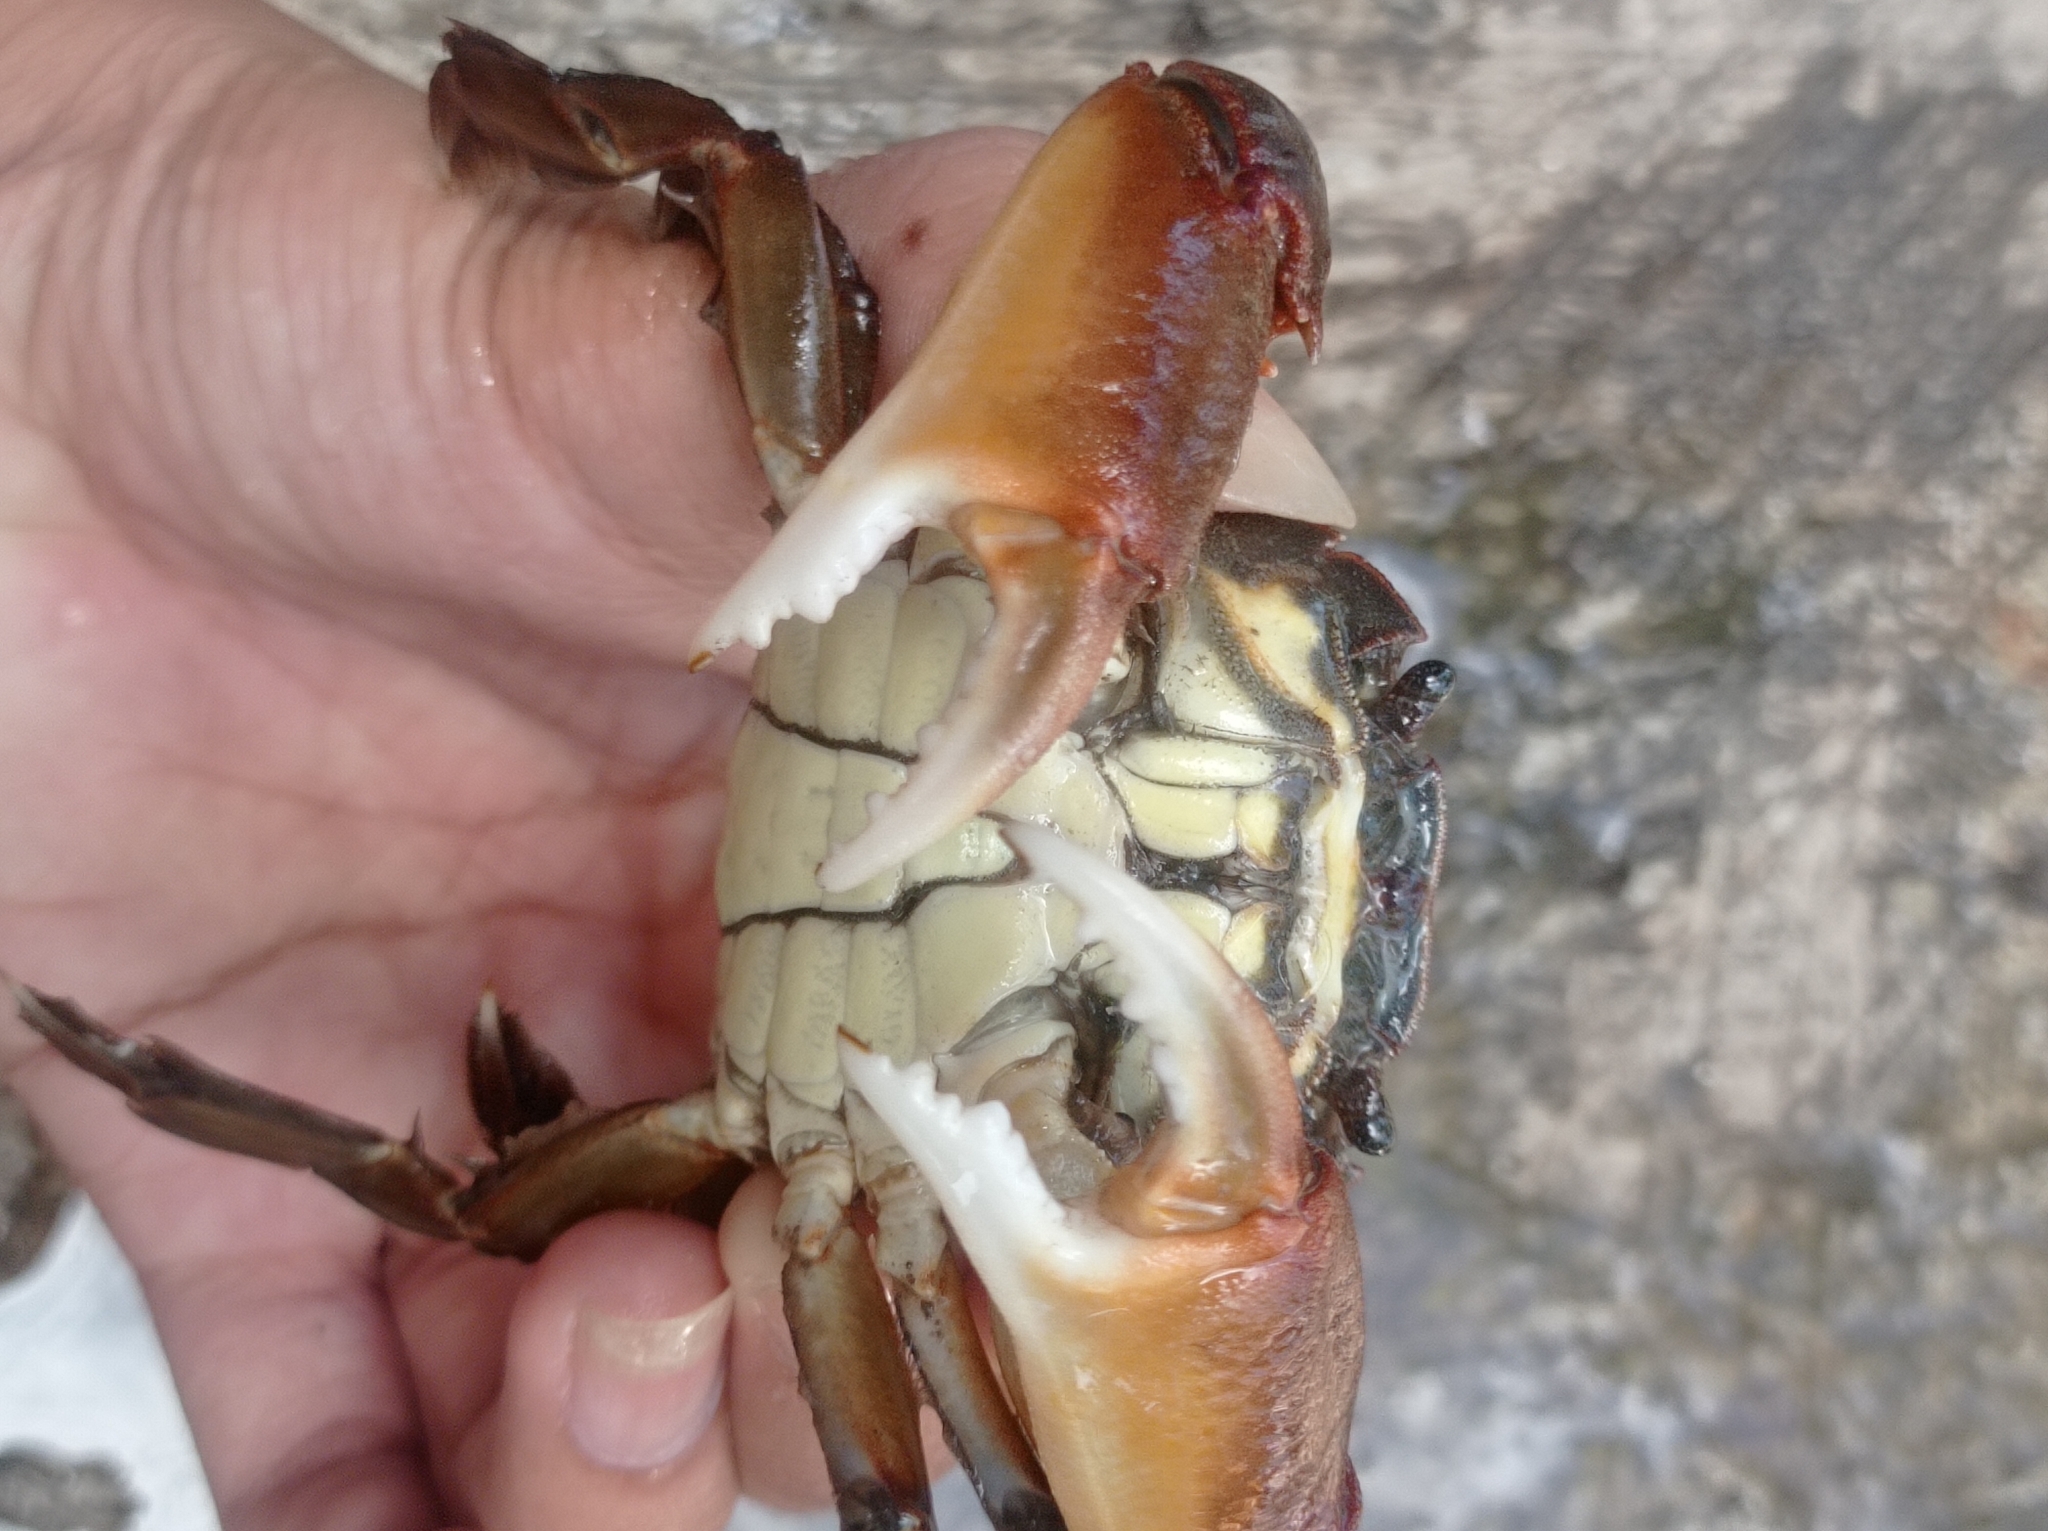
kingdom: Animalia
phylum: Arthropoda
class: Malacostraca
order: Decapoda
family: Varunidae
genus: Varuna
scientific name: Varuna litterata
